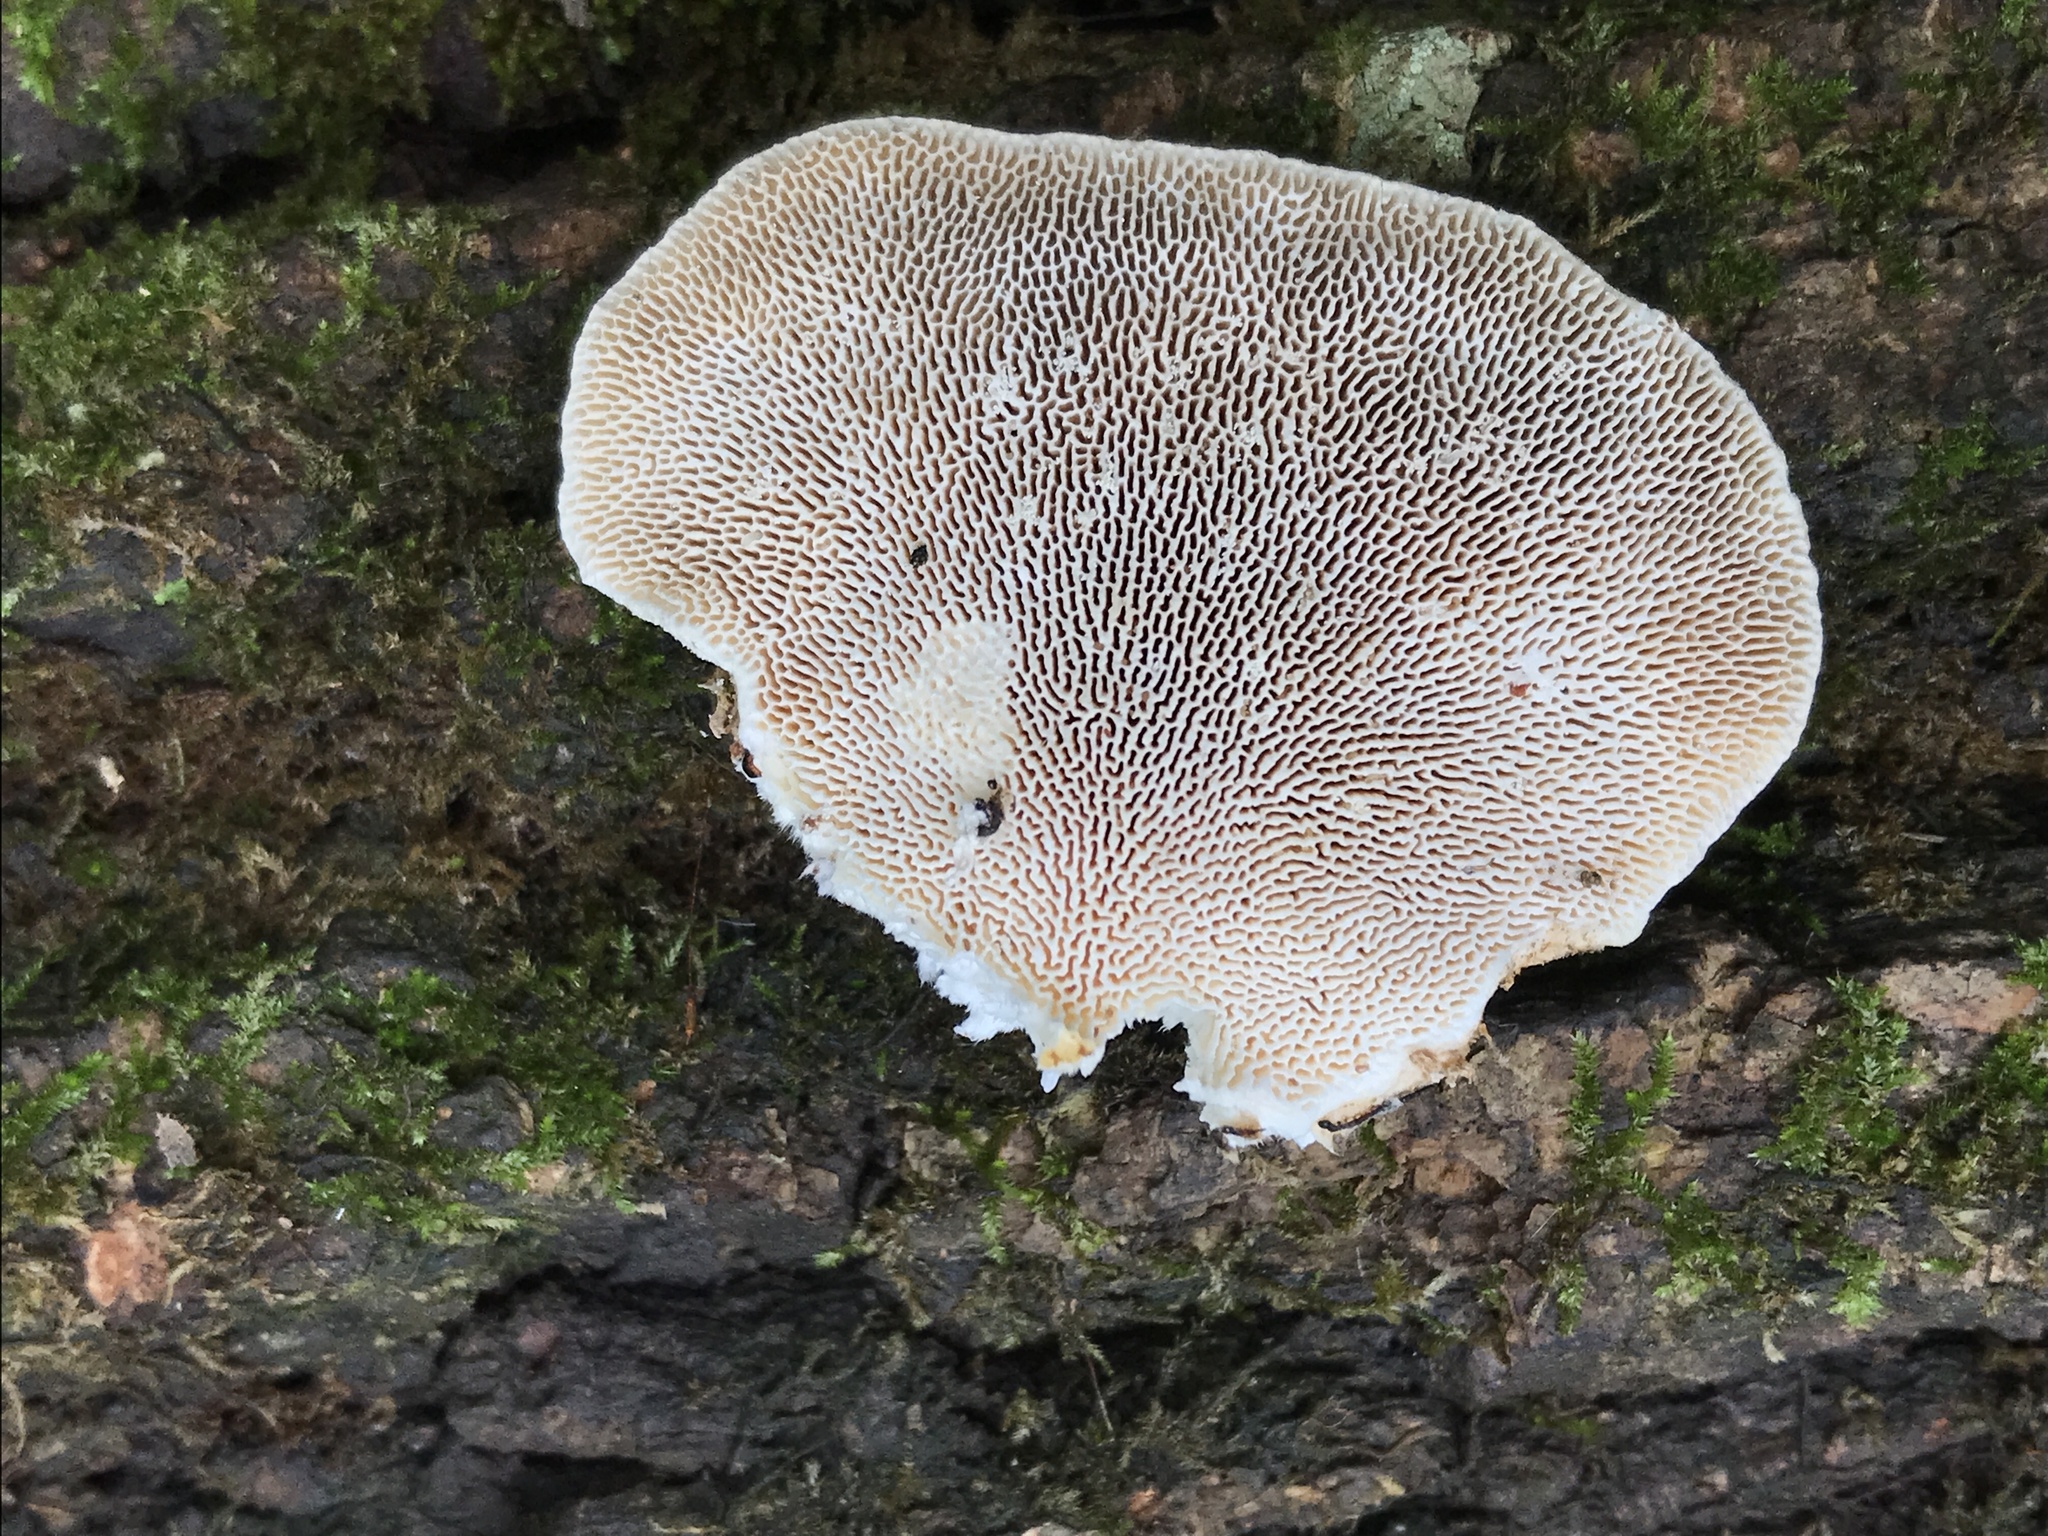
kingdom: Fungi
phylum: Basidiomycota
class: Agaricomycetes
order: Polyporales
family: Polyporaceae
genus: Trametes
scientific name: Trametes gibbosa
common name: Lumpy bracket
